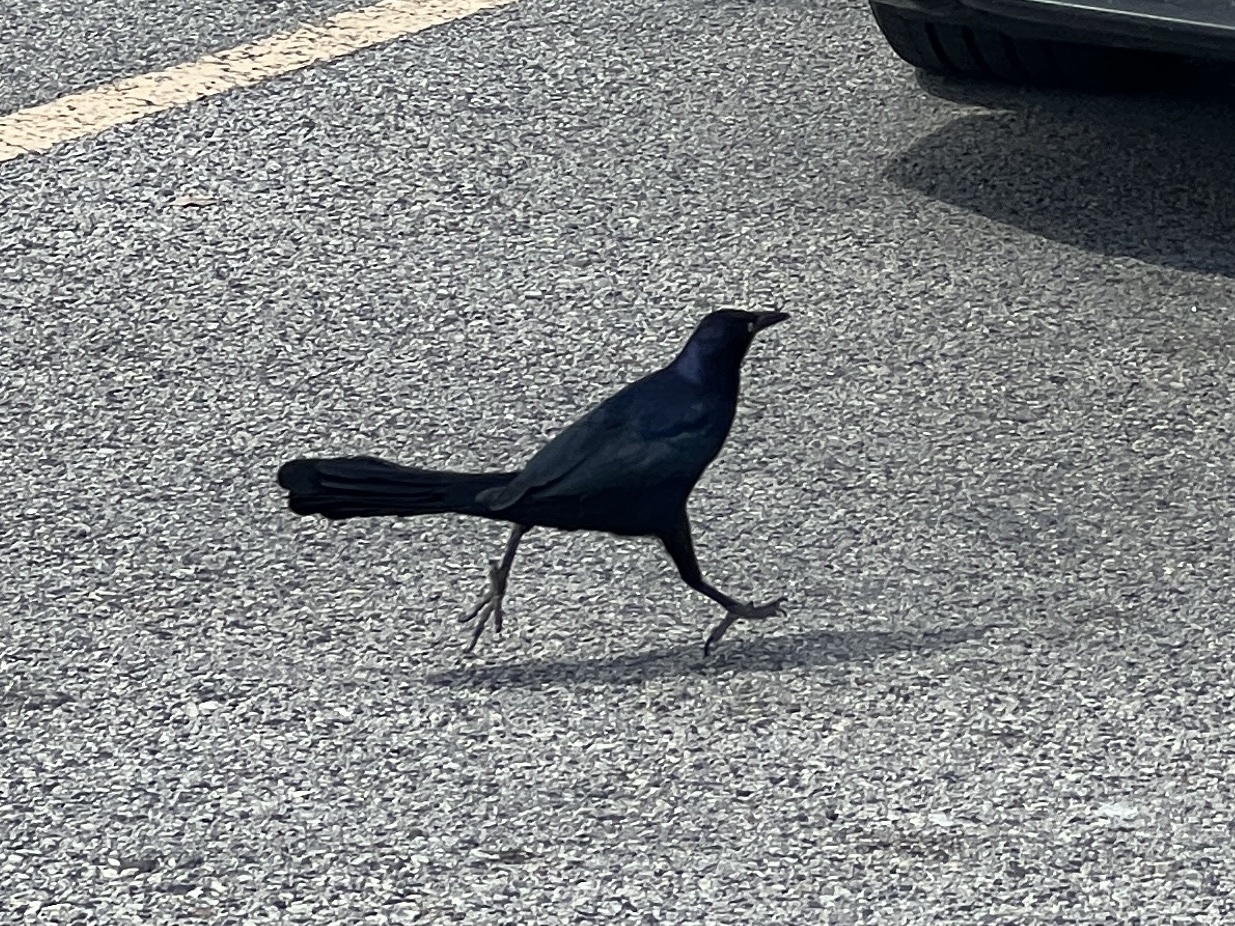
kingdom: Animalia
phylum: Chordata
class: Aves
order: Passeriformes
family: Icteridae
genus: Quiscalus
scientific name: Quiscalus mexicanus
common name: Great-tailed grackle
